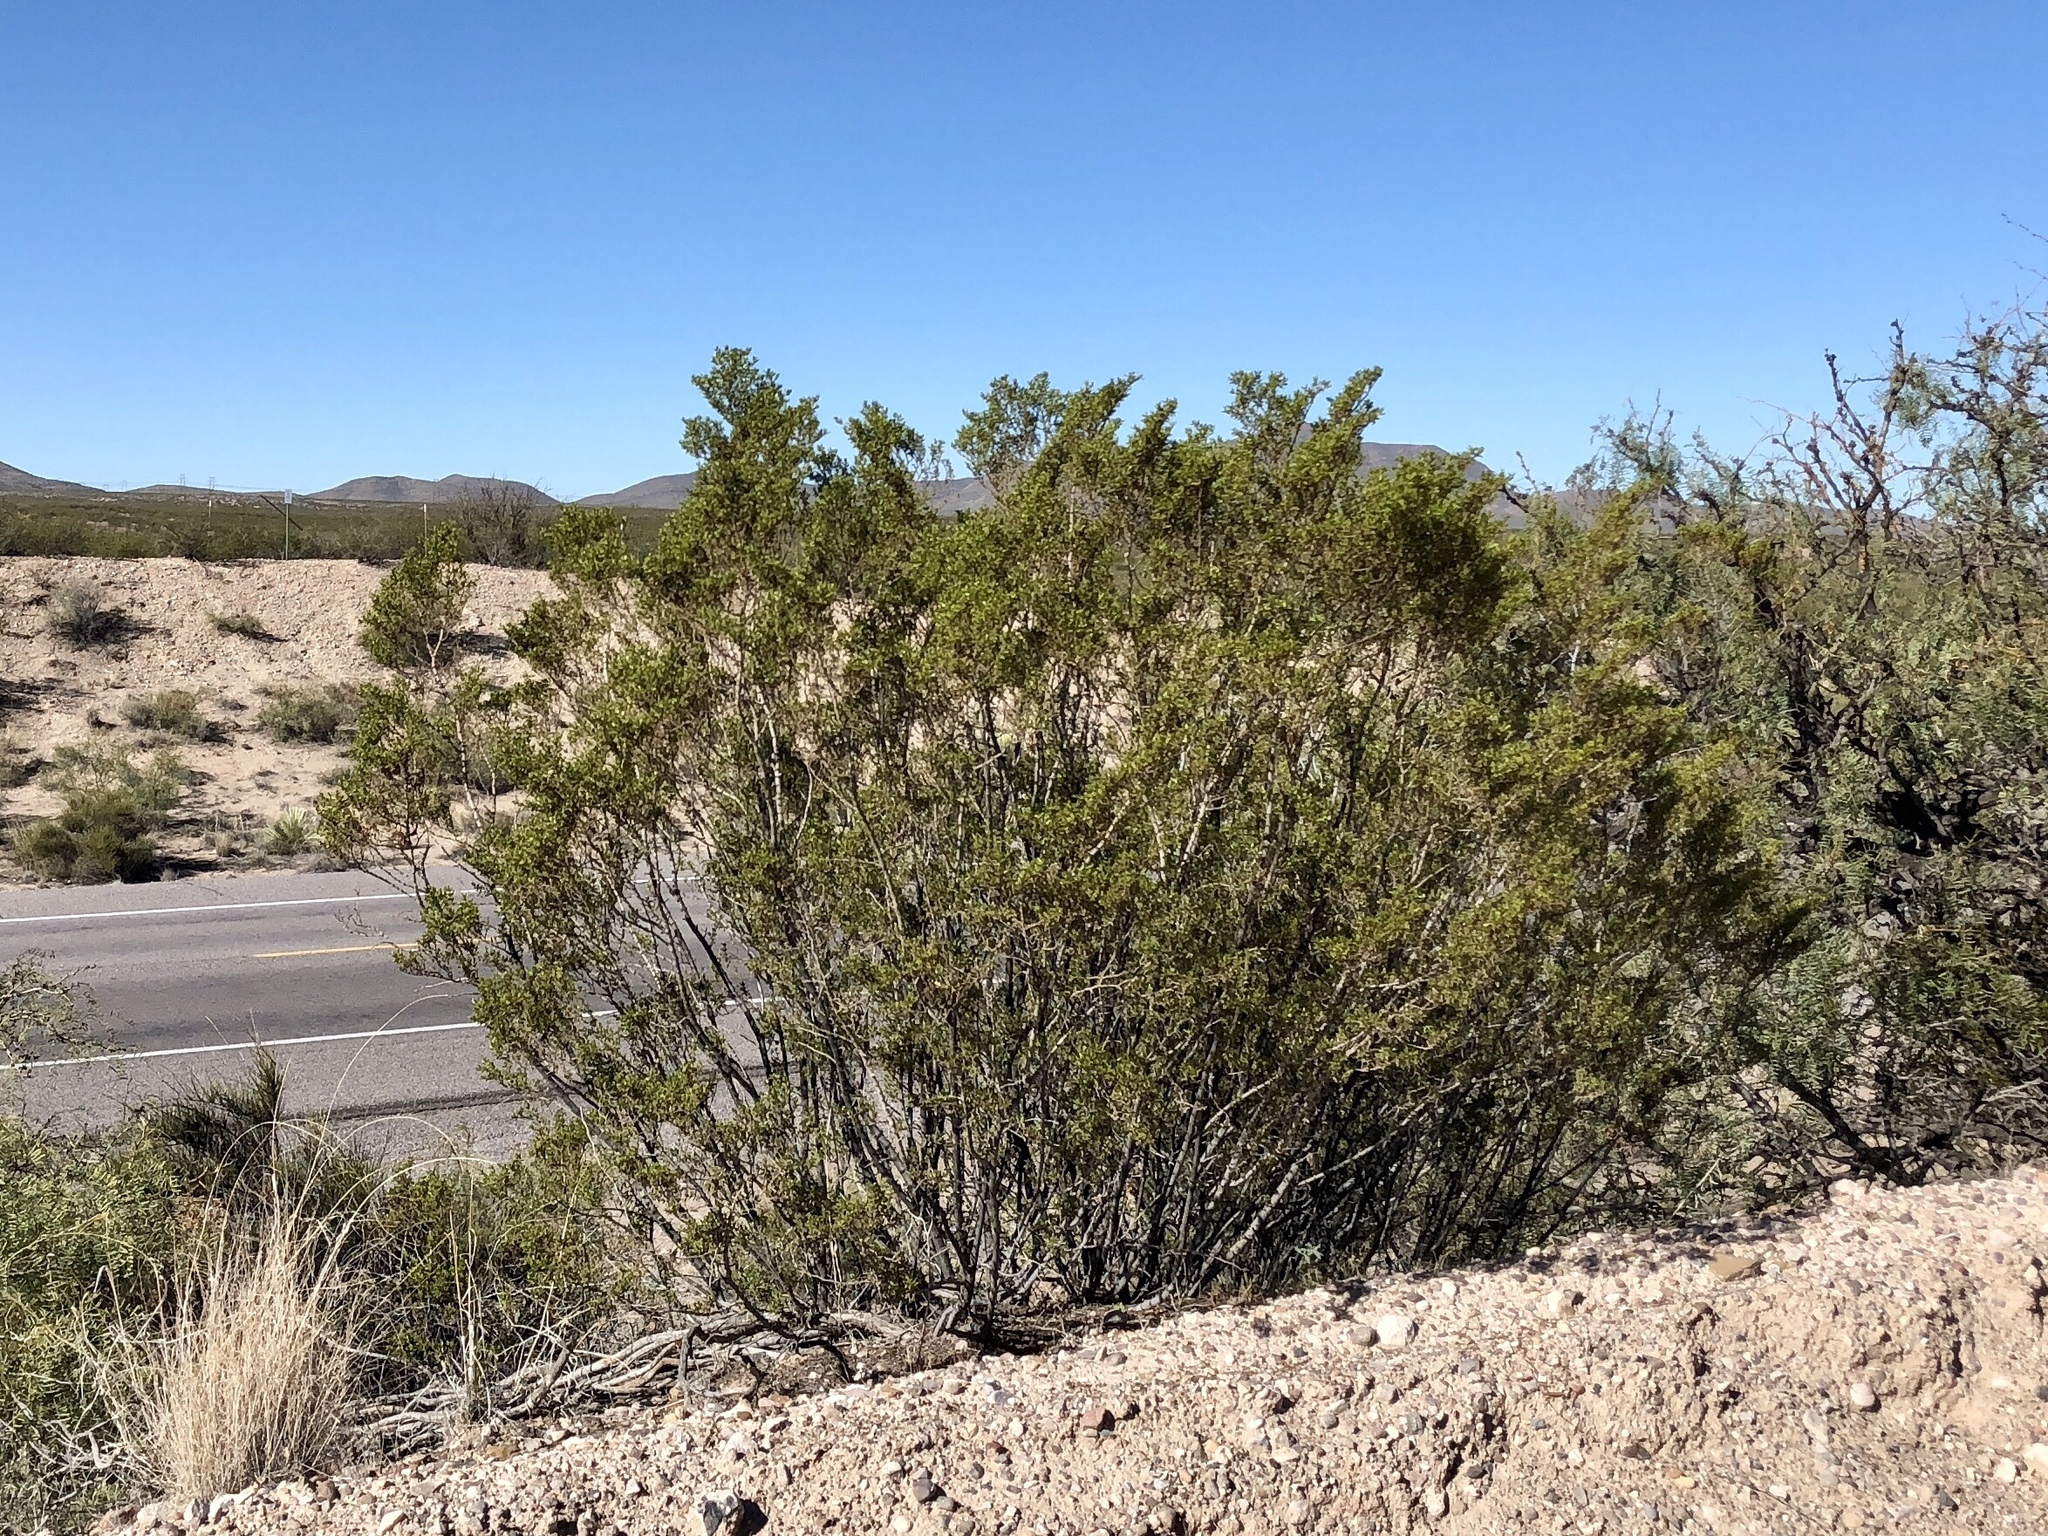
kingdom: Plantae
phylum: Tracheophyta
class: Magnoliopsida
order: Zygophyllales
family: Zygophyllaceae
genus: Larrea
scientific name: Larrea tridentata
